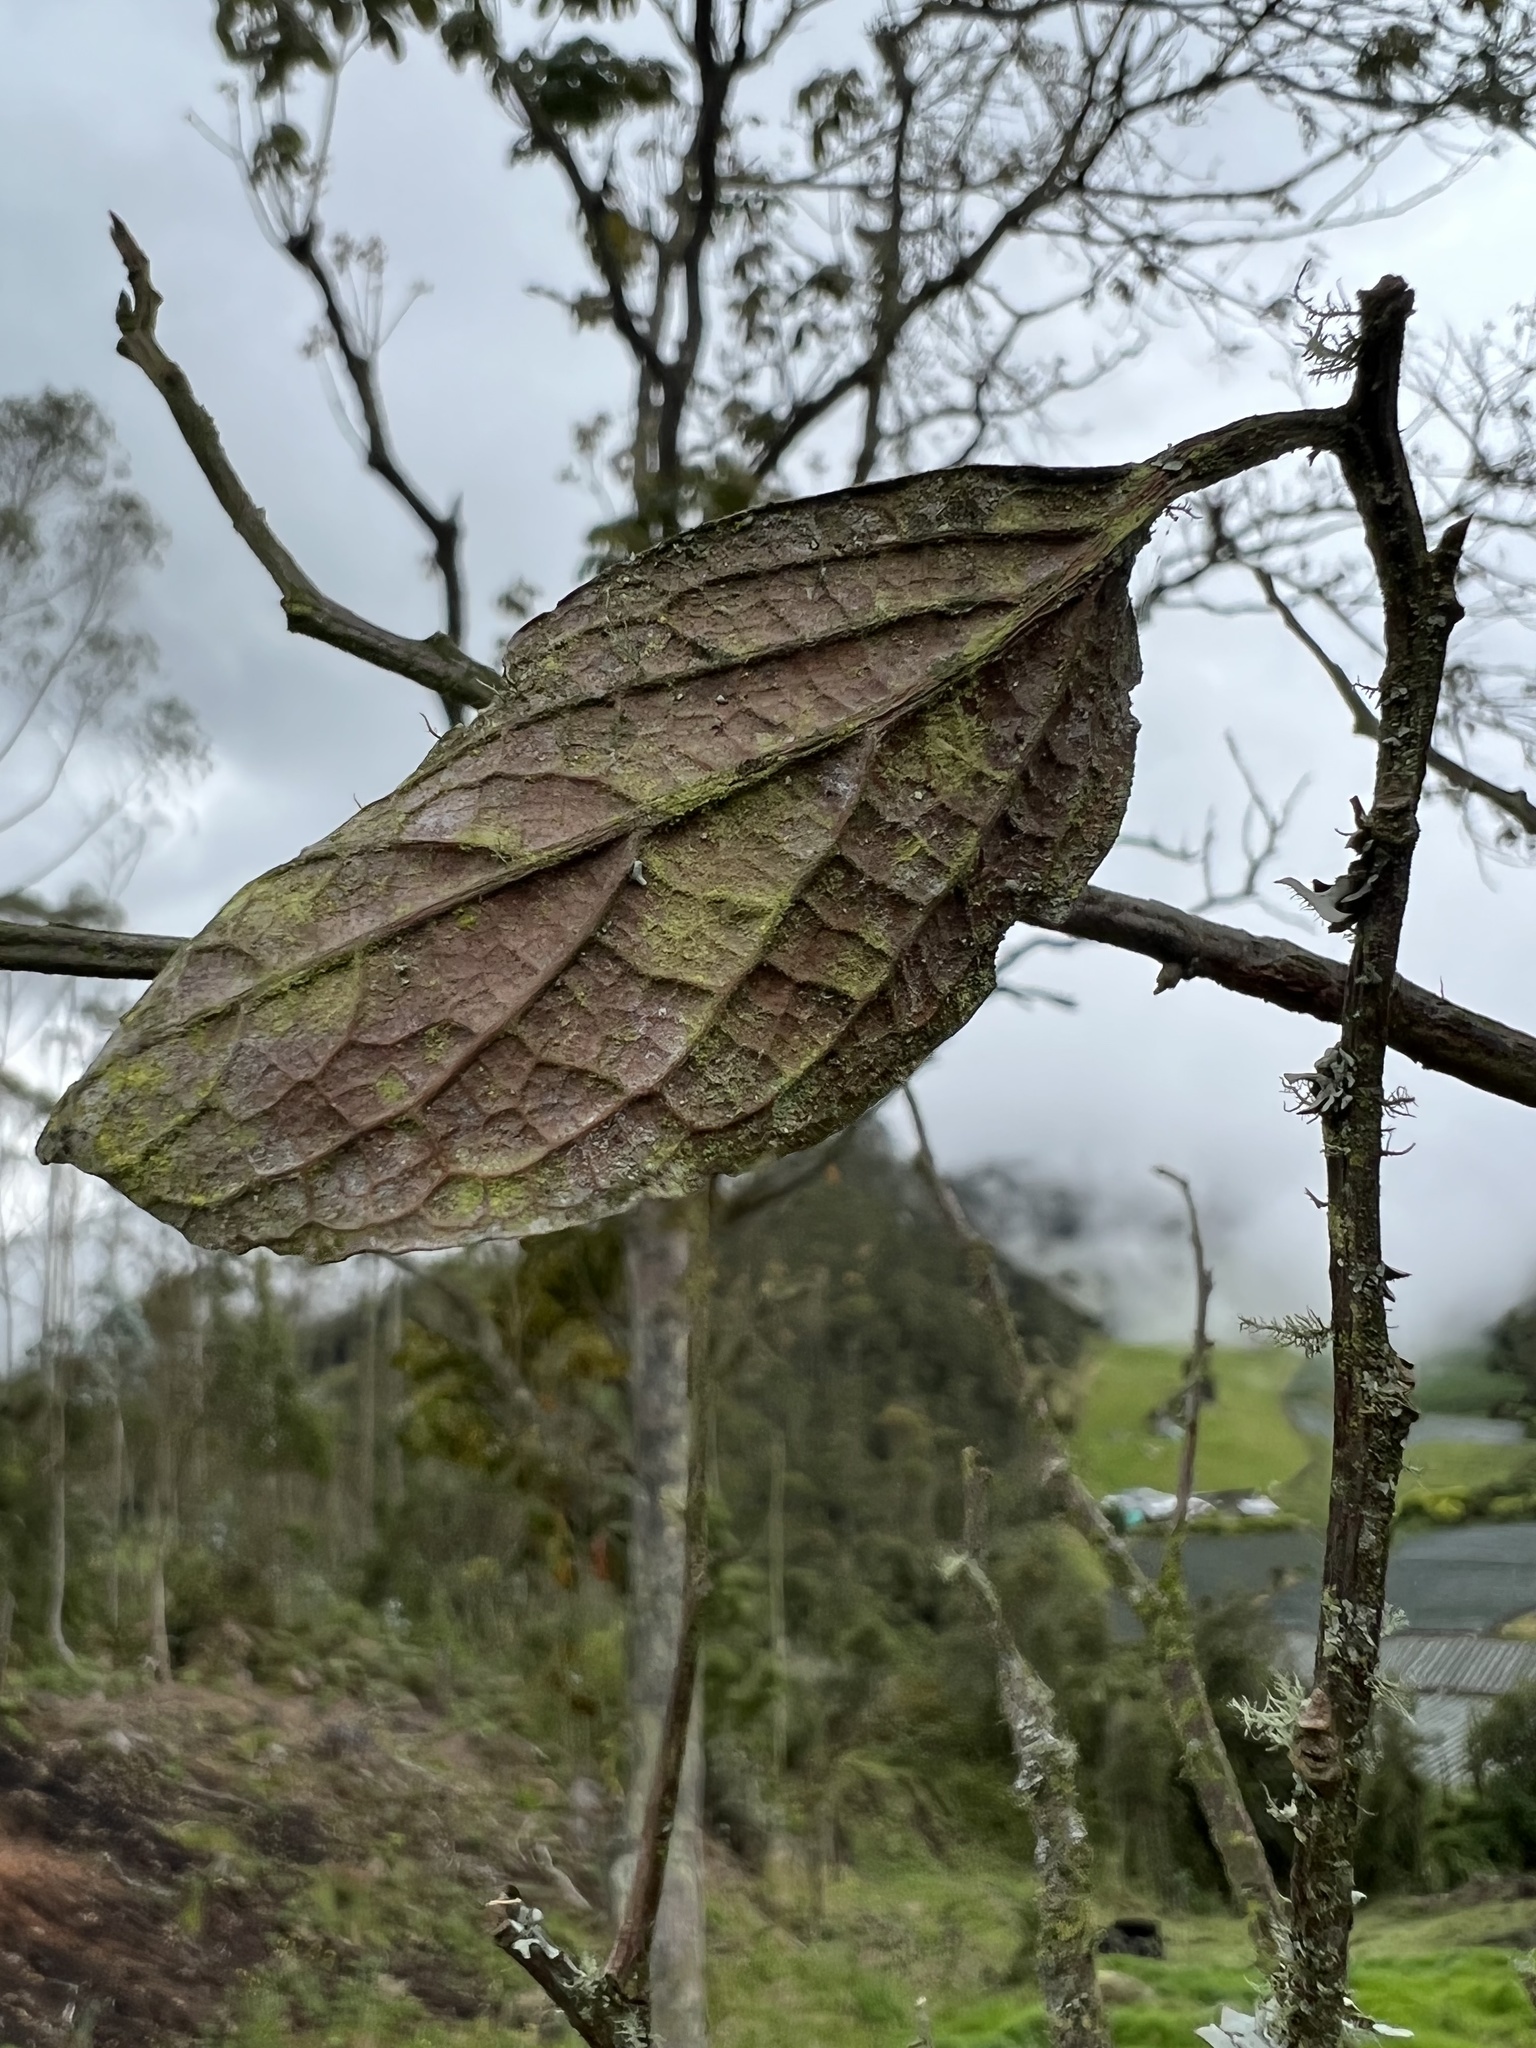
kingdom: Plantae
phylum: Tracheophyta
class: Magnoliopsida
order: Laurales
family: Lauraceae
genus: Ocotea
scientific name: Ocotea pedicellata
